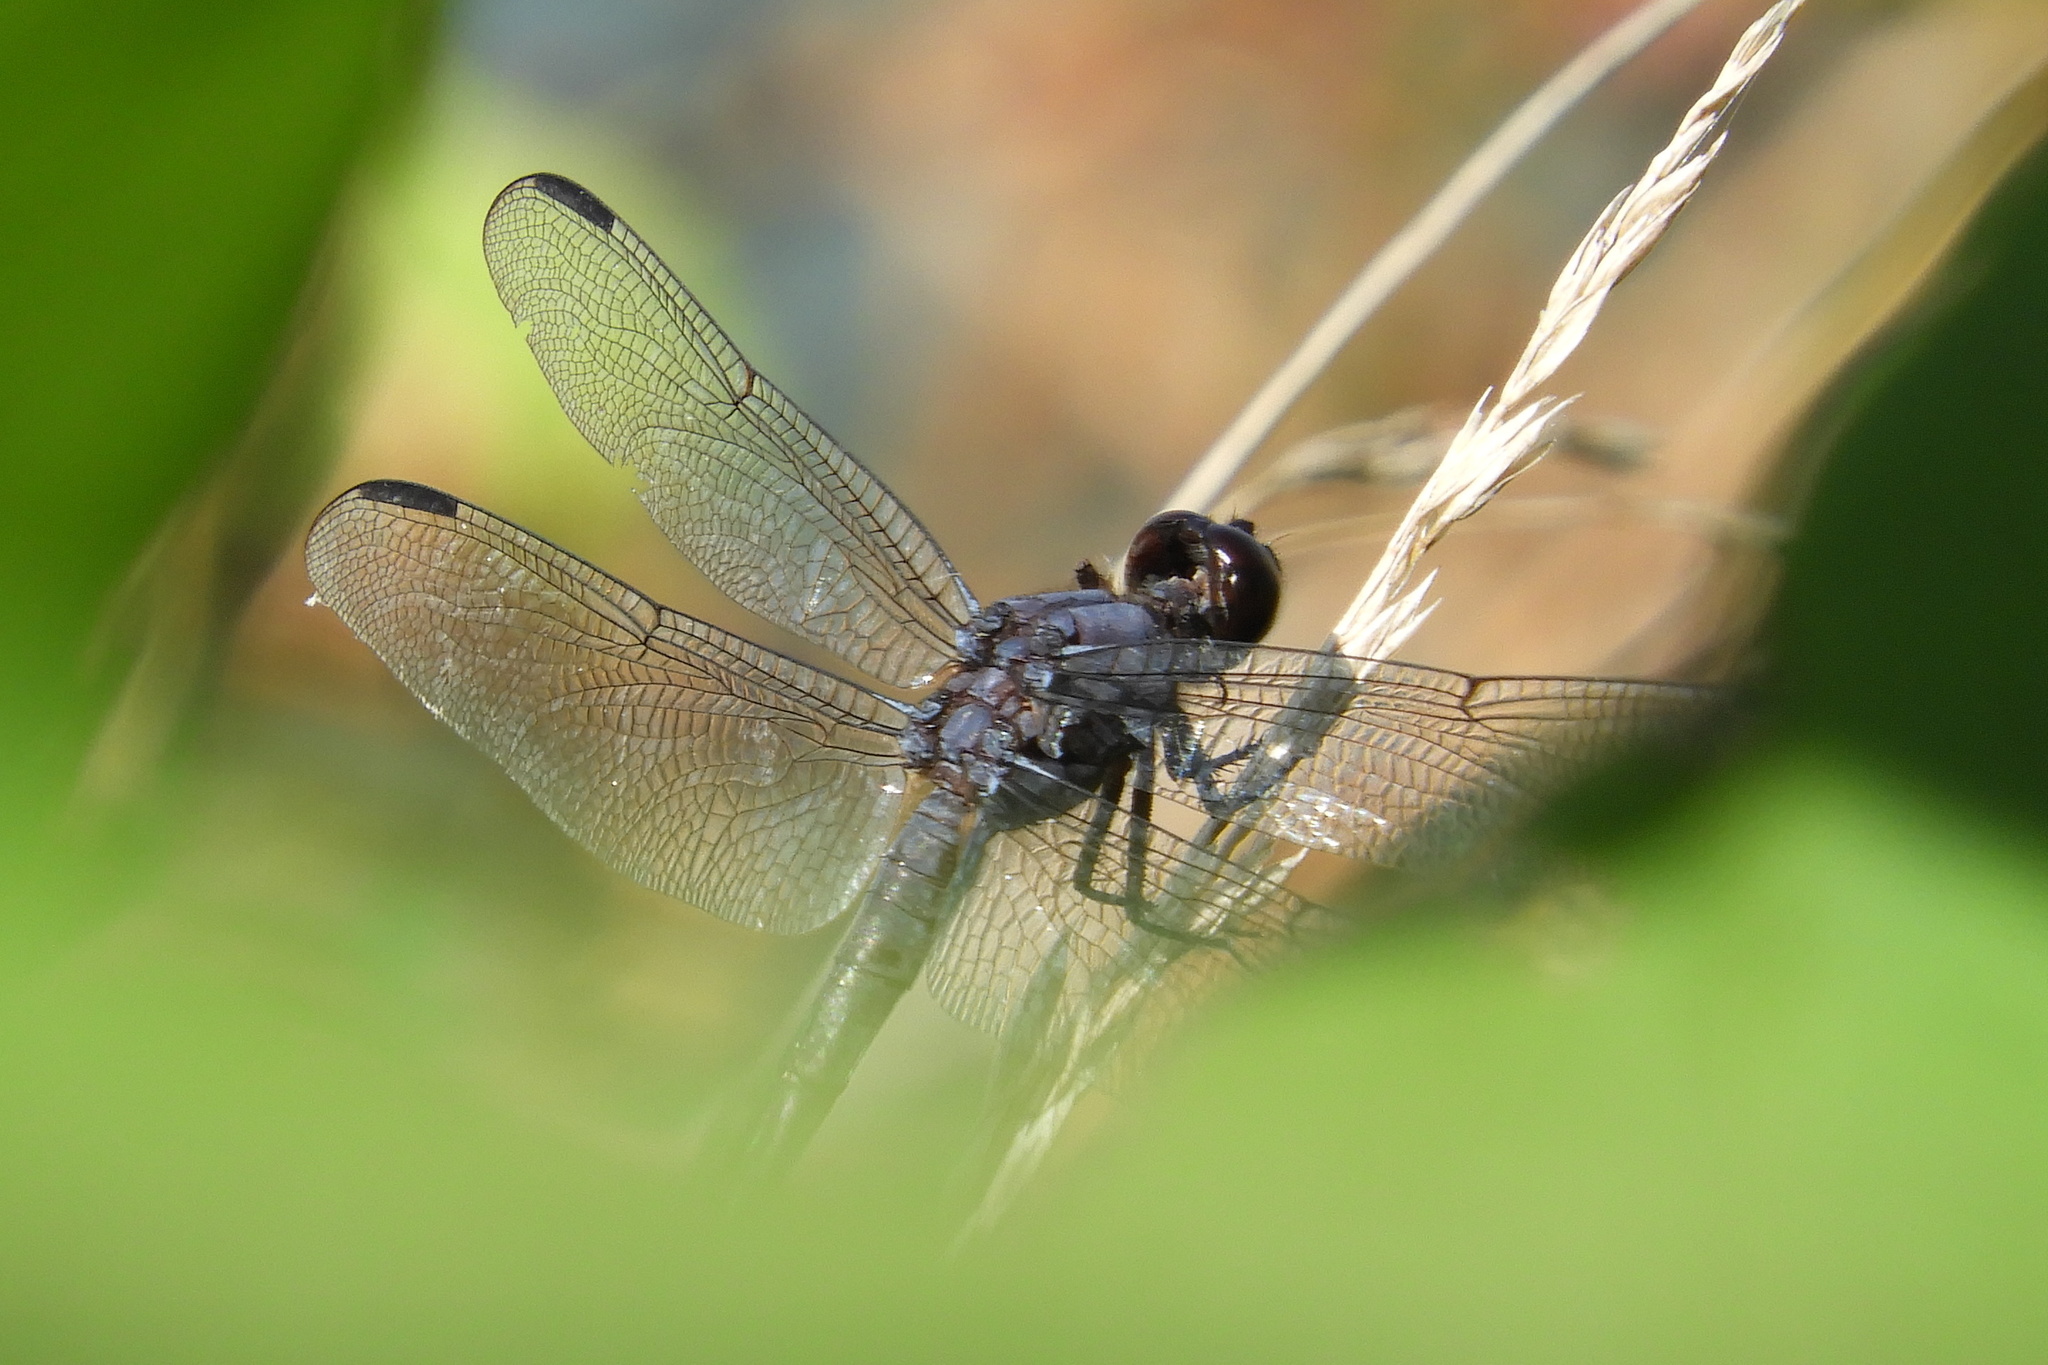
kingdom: Animalia
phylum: Arthropoda
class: Insecta
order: Odonata
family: Libellulidae
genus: Libellula
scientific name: Libellula incesta
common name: Slaty skimmer
